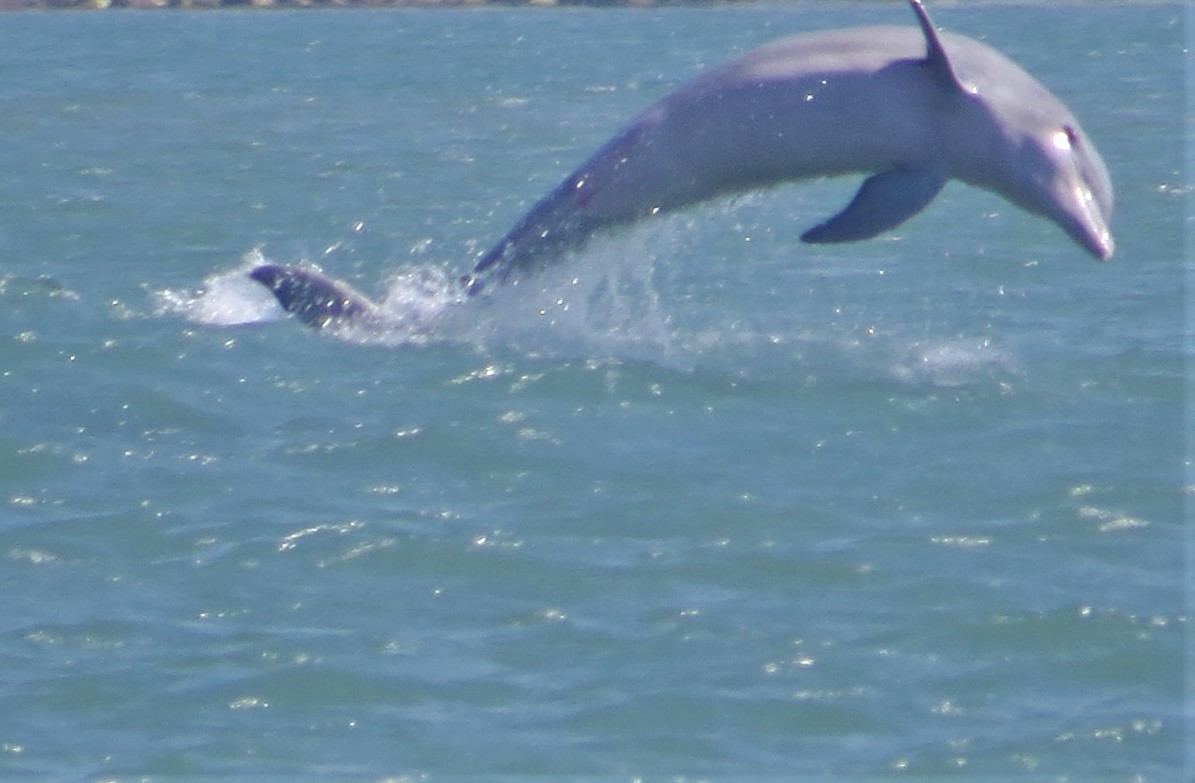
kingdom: Animalia
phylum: Chordata
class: Mammalia
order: Cetacea
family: Delphinidae
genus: Tursiops
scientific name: Tursiops truncatus
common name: Bottlenose dolphin
